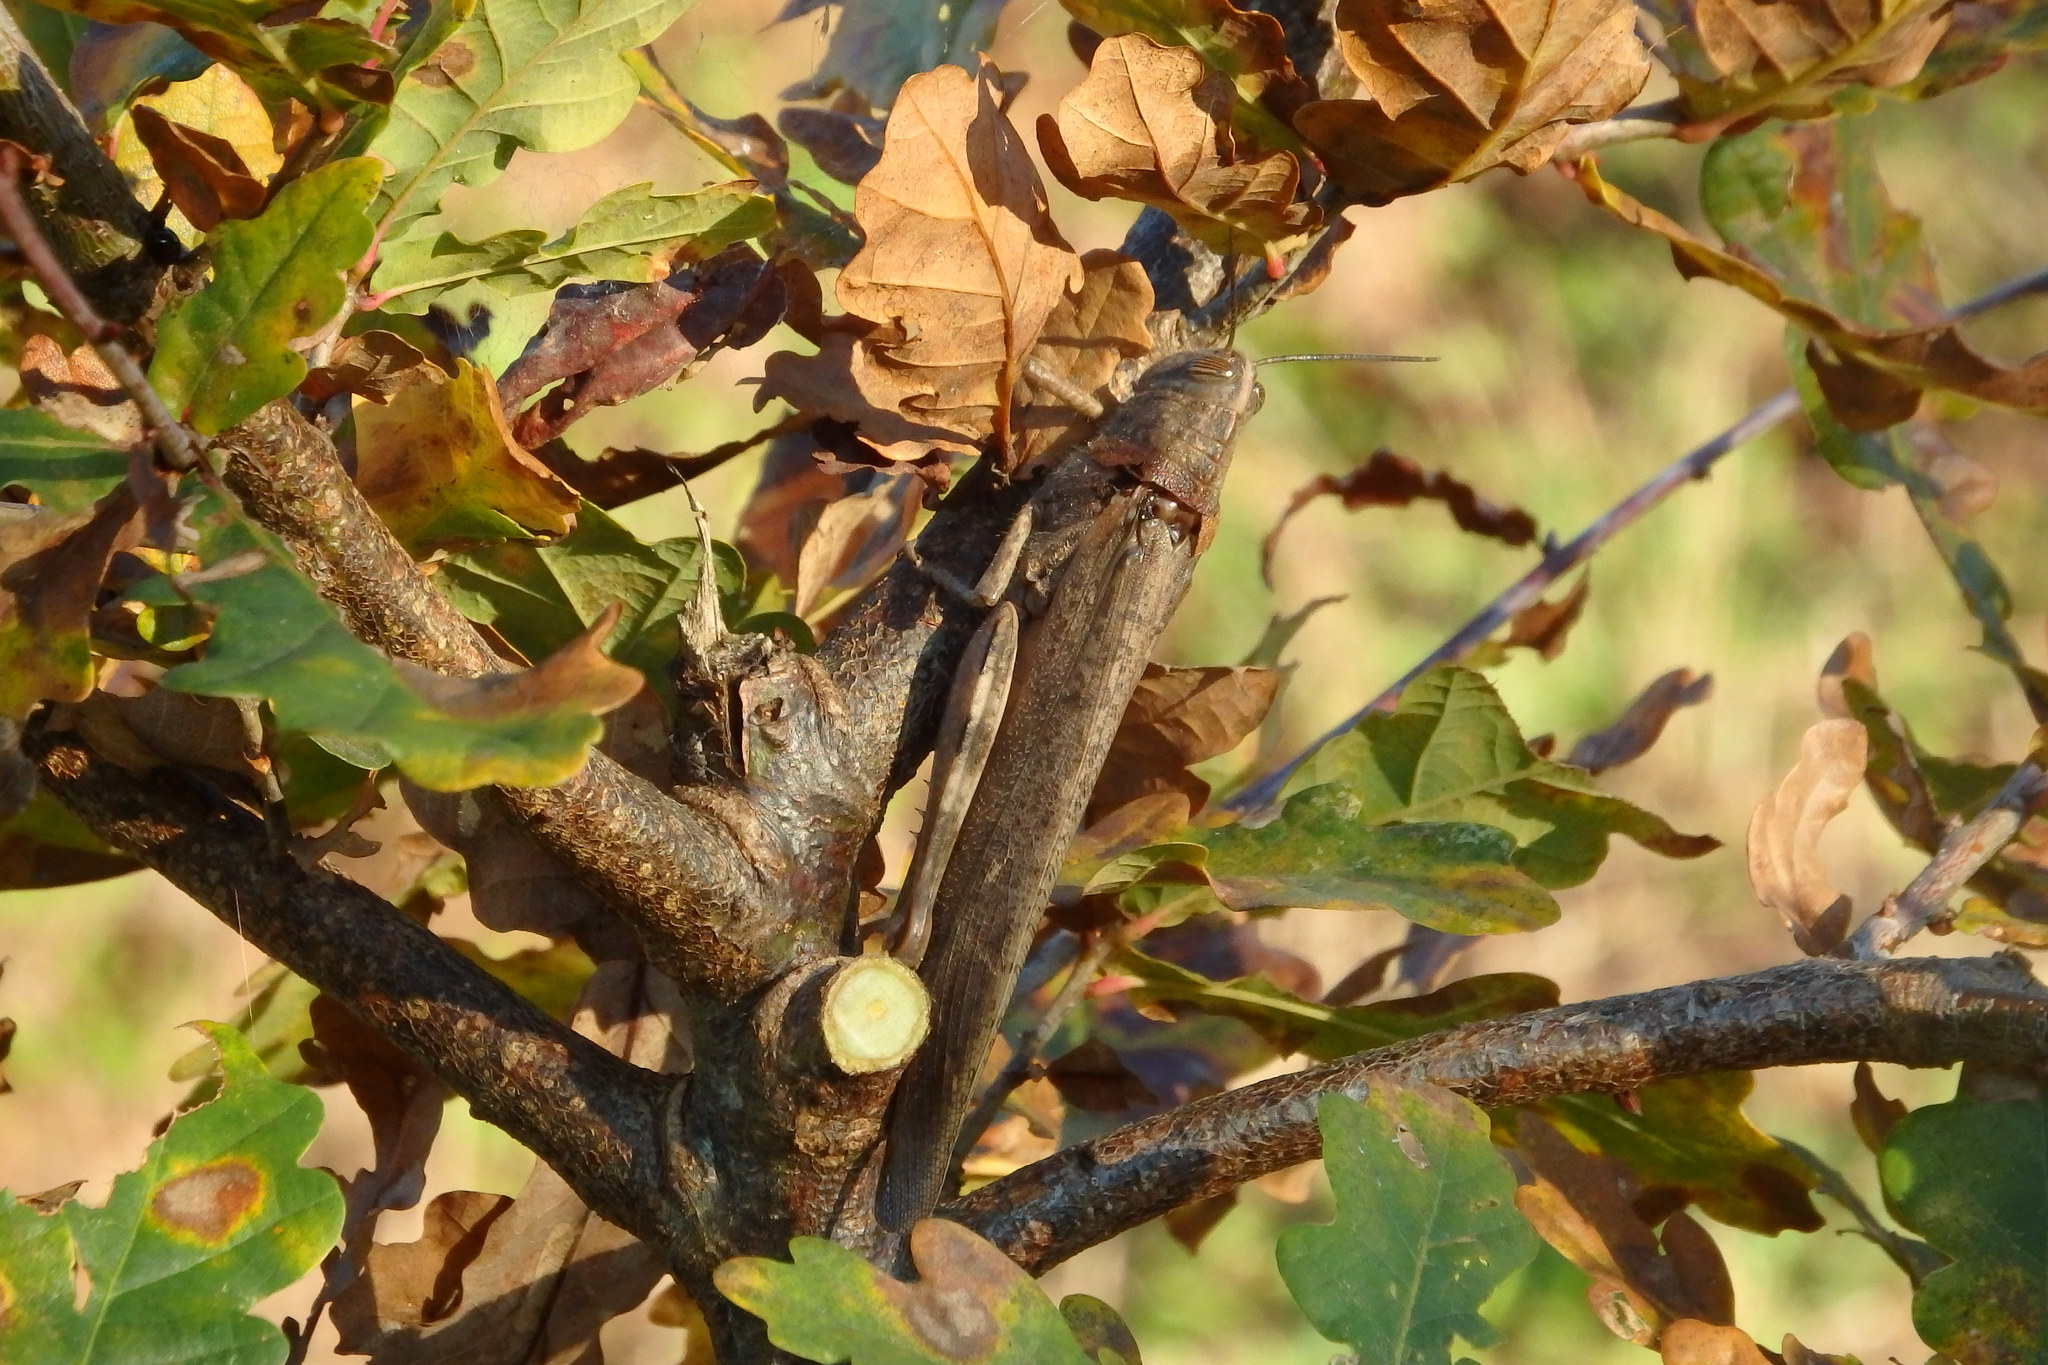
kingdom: Animalia
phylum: Arthropoda
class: Insecta
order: Orthoptera
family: Acrididae
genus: Anacridium
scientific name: Anacridium aegyptium
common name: Egyptian grasshopper
